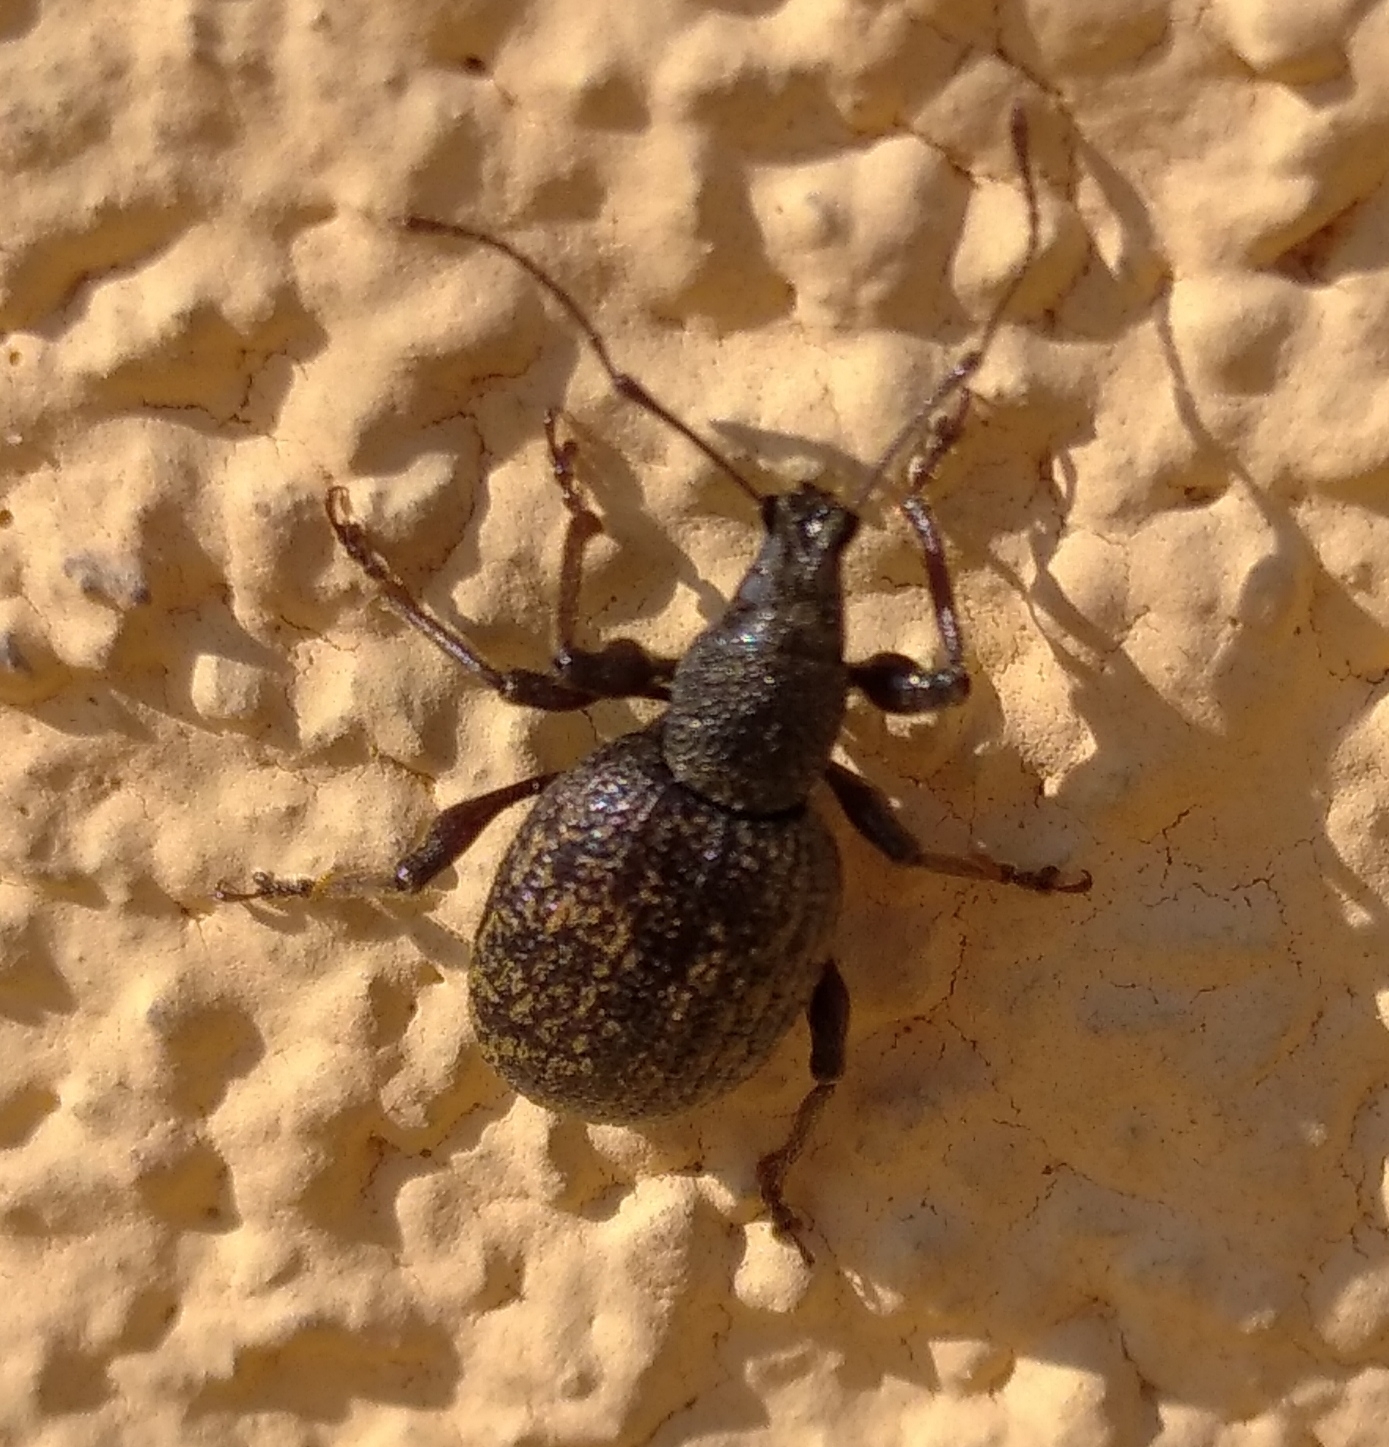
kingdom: Animalia
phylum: Arthropoda
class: Insecta
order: Coleoptera
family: Curculionidae
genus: Otiorhynchus
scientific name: Otiorhynchus aurifer
